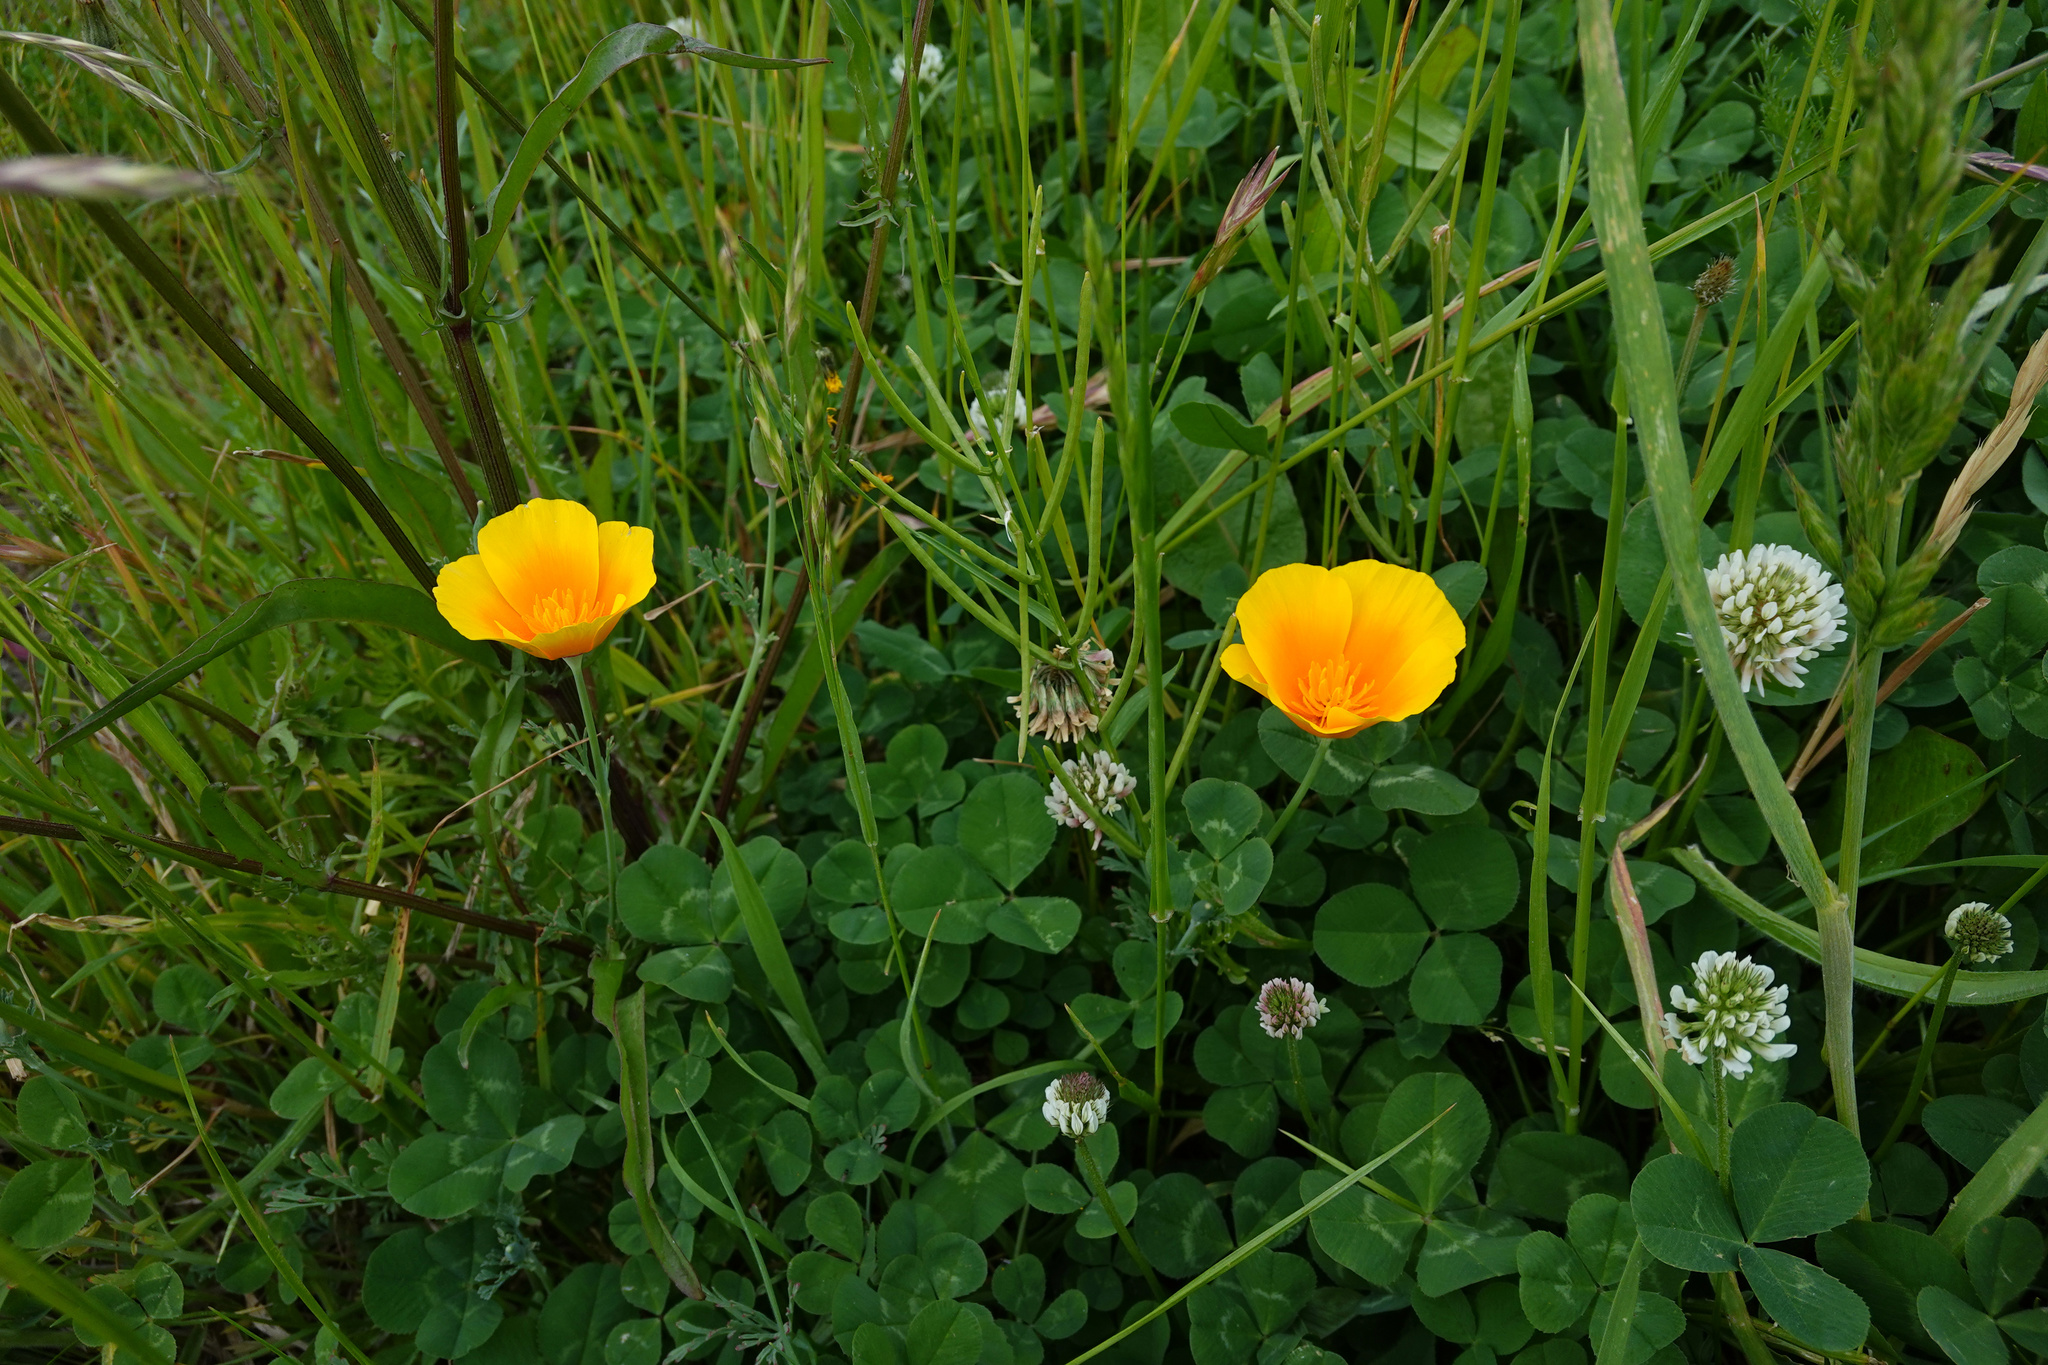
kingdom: Plantae
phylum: Tracheophyta
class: Magnoliopsida
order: Ranunculales
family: Papaveraceae
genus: Eschscholzia
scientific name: Eschscholzia californica
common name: California poppy
